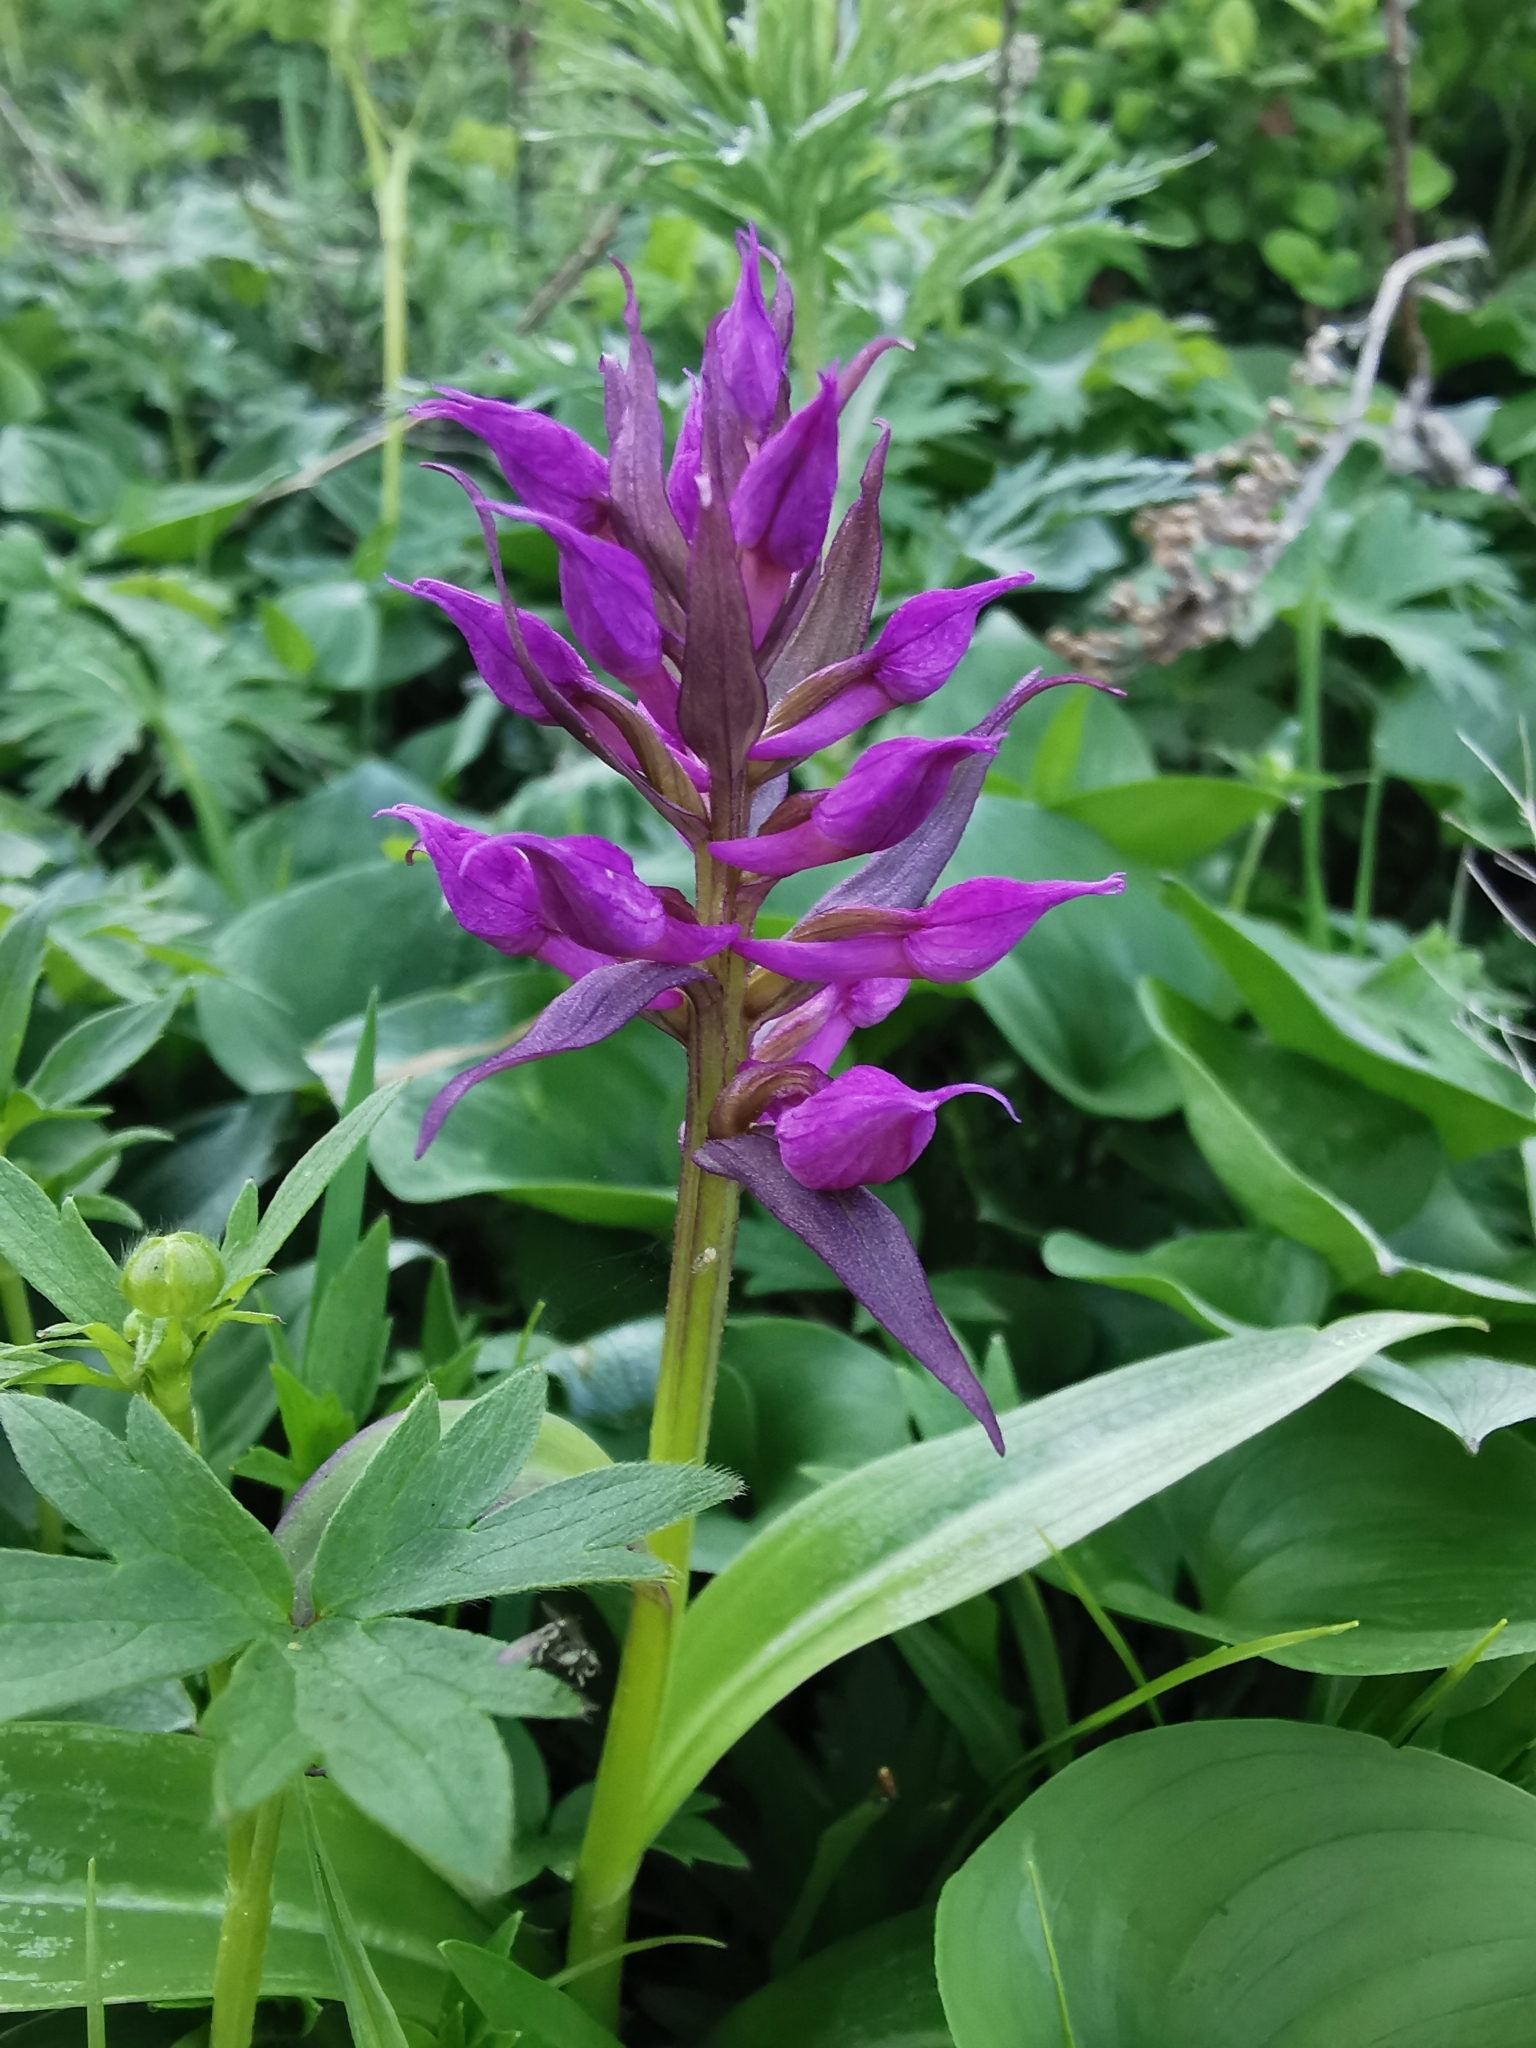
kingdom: Plantae
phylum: Tracheophyta
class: Liliopsida
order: Asparagales
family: Orchidaceae
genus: Dactylorhiza
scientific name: Dactylorhiza aristata
